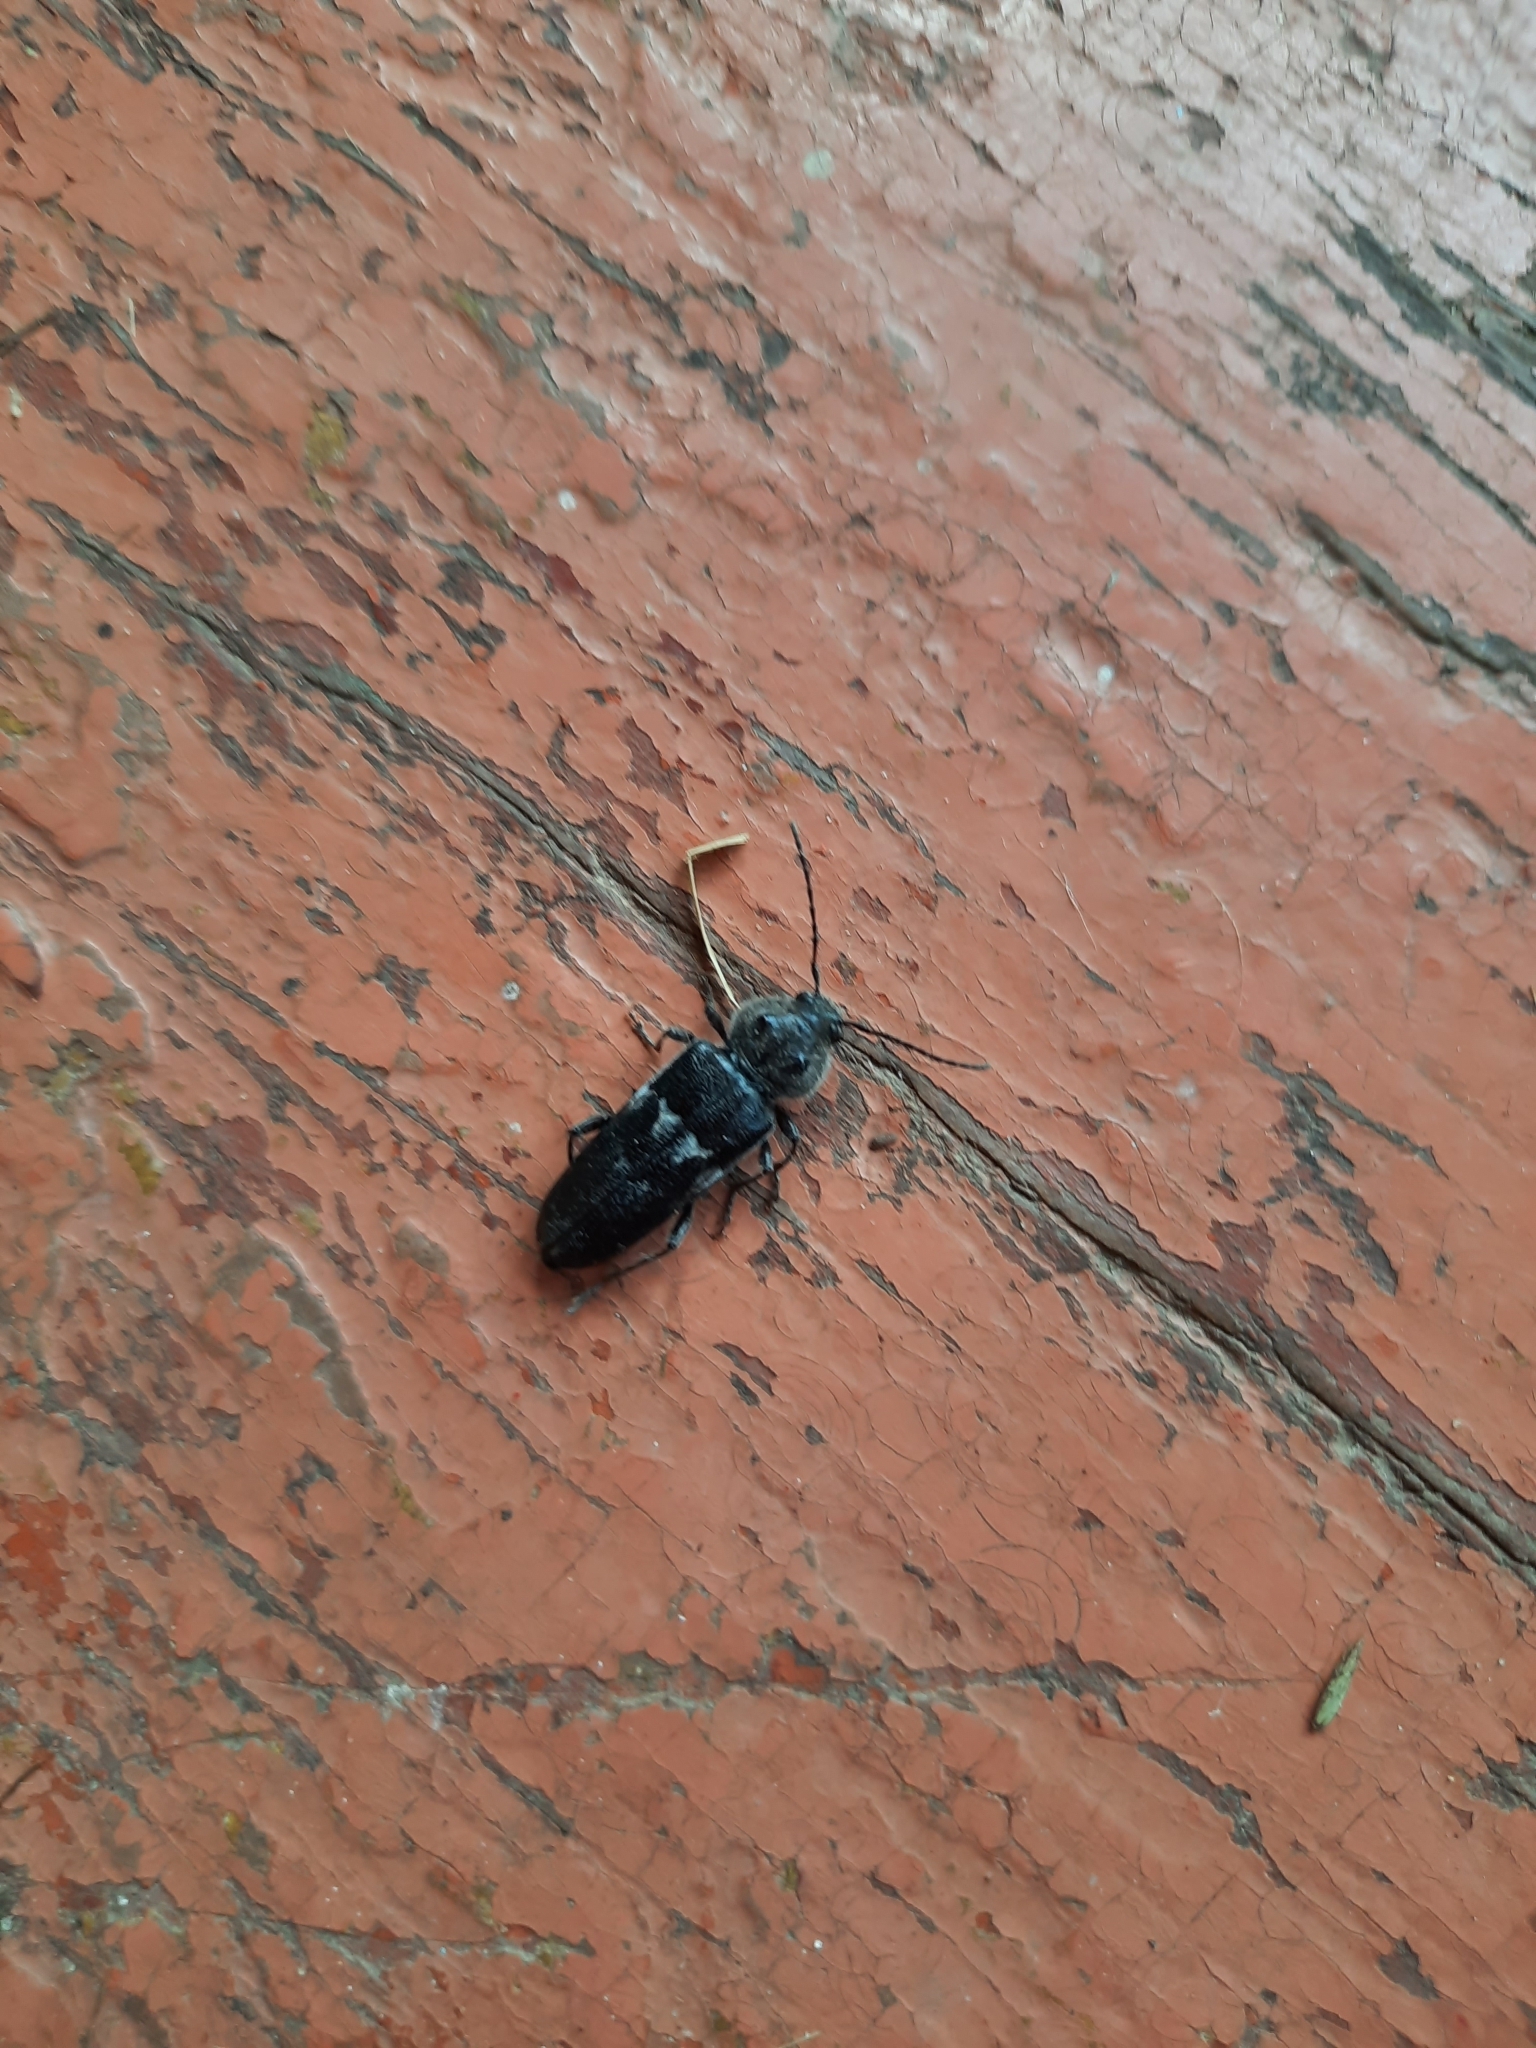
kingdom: Animalia
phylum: Arthropoda
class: Insecta
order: Coleoptera
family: Cerambycidae
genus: Hylotrupes
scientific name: Hylotrupes bajulus
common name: Old house borer
